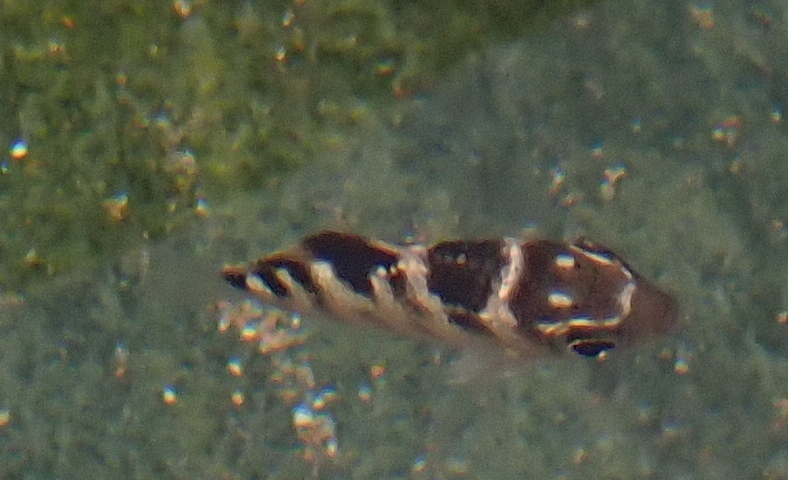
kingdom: Animalia
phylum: Chordata
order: Perciformes
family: Pomacentridae
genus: Abudefduf
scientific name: Abudefduf taurus
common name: Night sergeant
